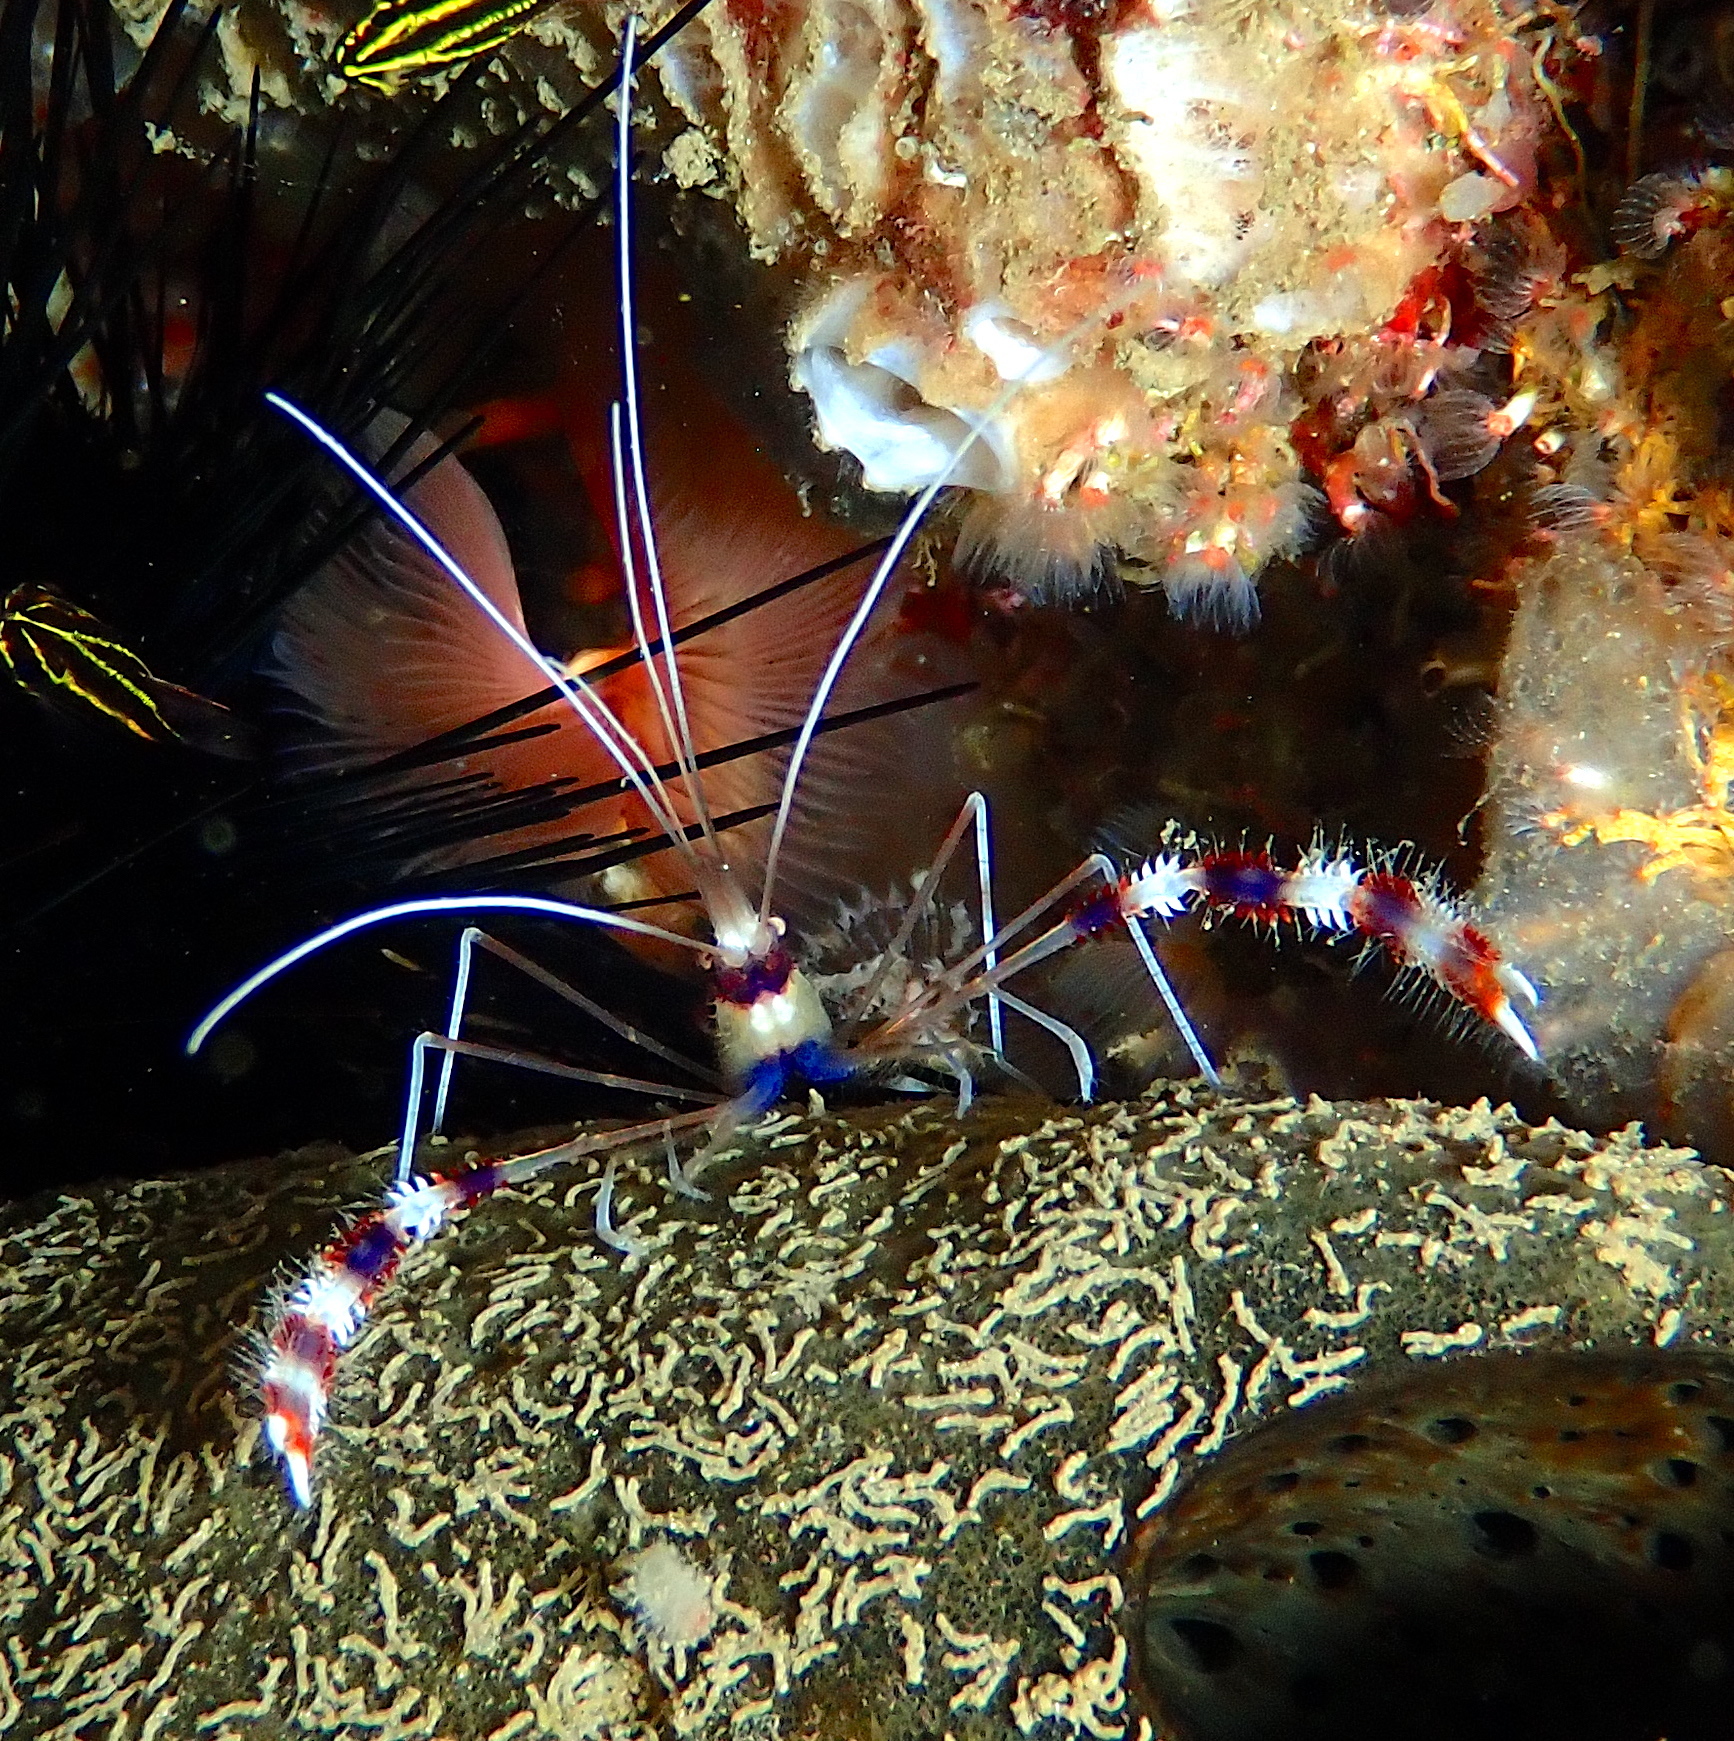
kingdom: Animalia
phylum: Arthropoda
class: Malacostraca
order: Decapoda
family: Stenopodidae
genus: Stenopus
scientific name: Stenopus hispidus
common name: Banded coral shrimp
